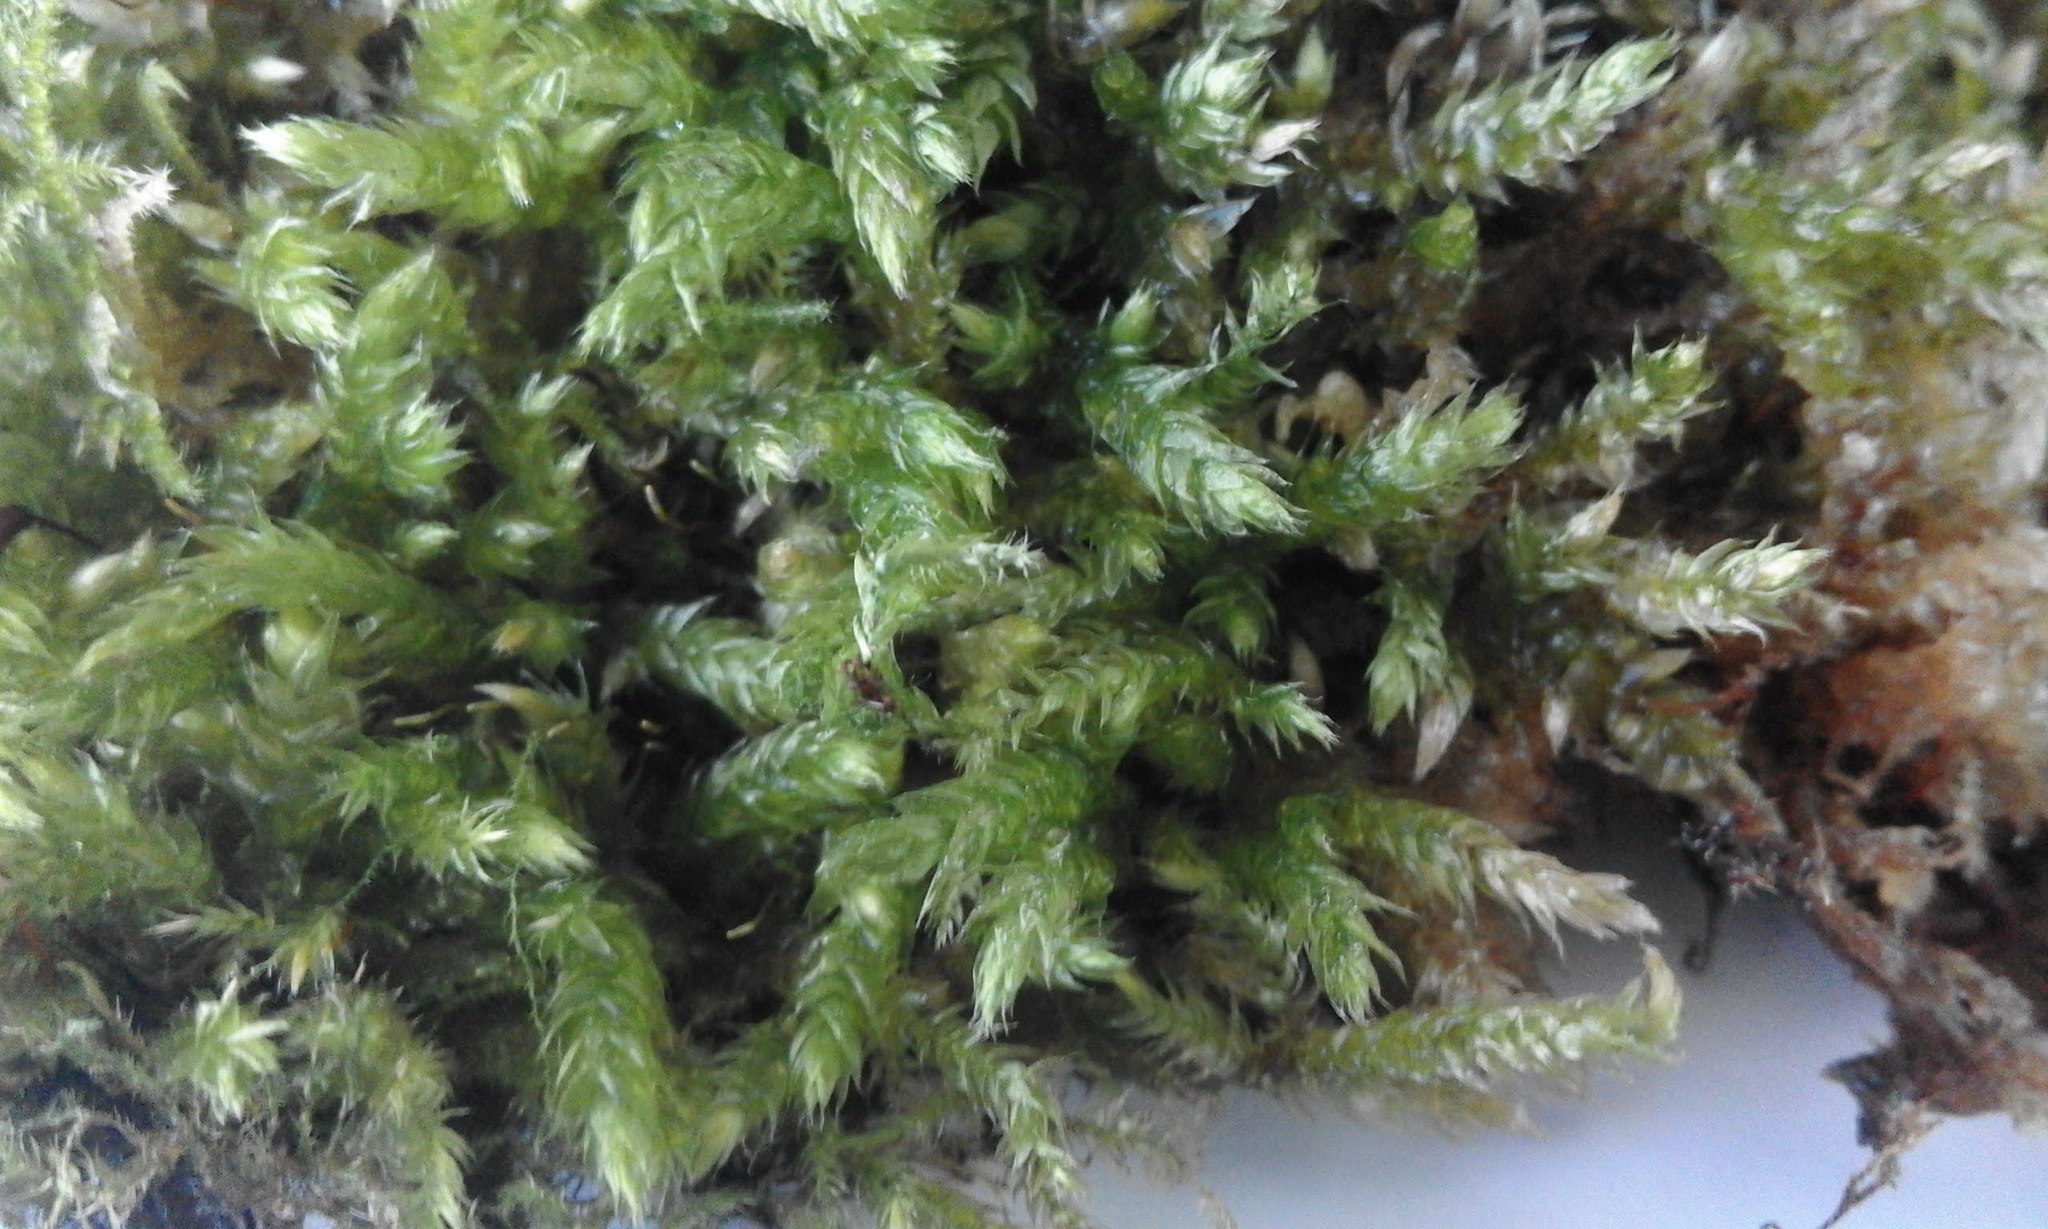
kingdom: Plantae
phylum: Bryophyta
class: Bryopsida
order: Hypnales
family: Hypnaceae
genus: Hypnum
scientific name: Hypnum cupressiforme
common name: Cypress-leaved plait-moss
